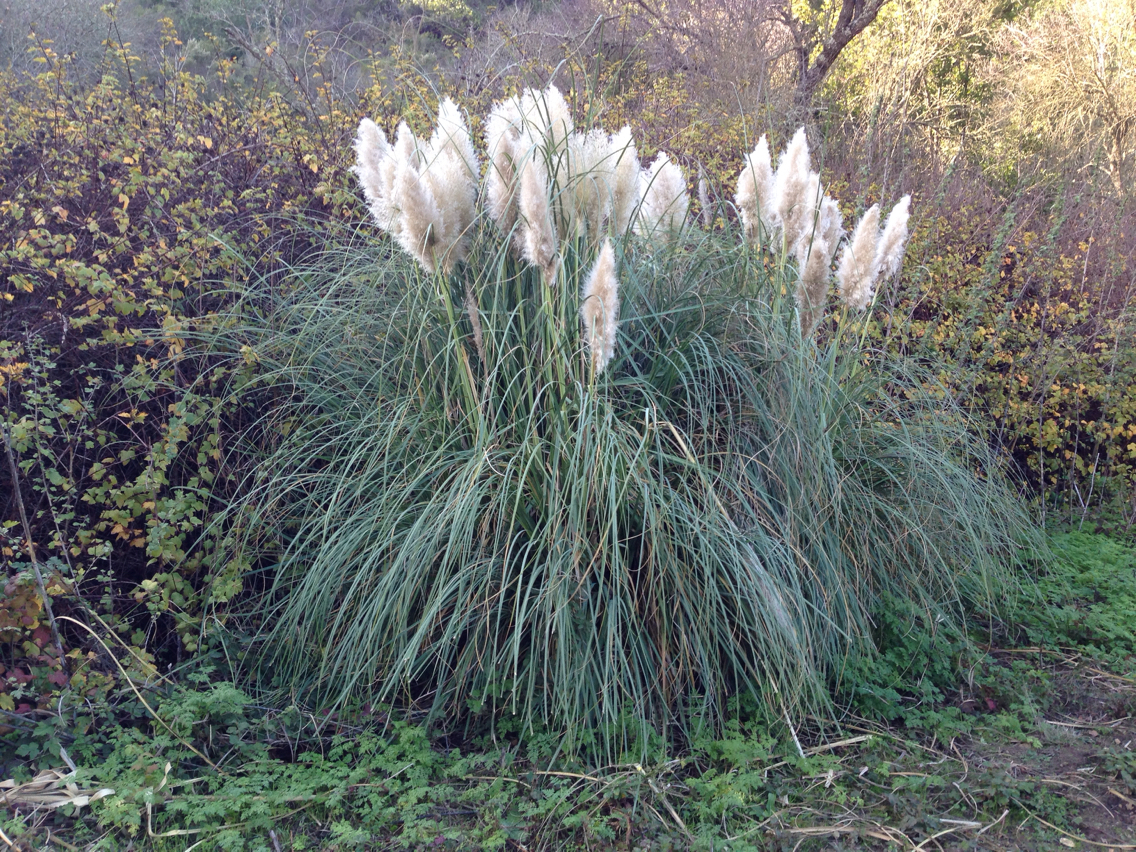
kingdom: Plantae
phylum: Tracheophyta
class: Liliopsida
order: Poales
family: Poaceae
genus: Cortaderia
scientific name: Cortaderia selloana
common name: Uruguayan pampas grass
